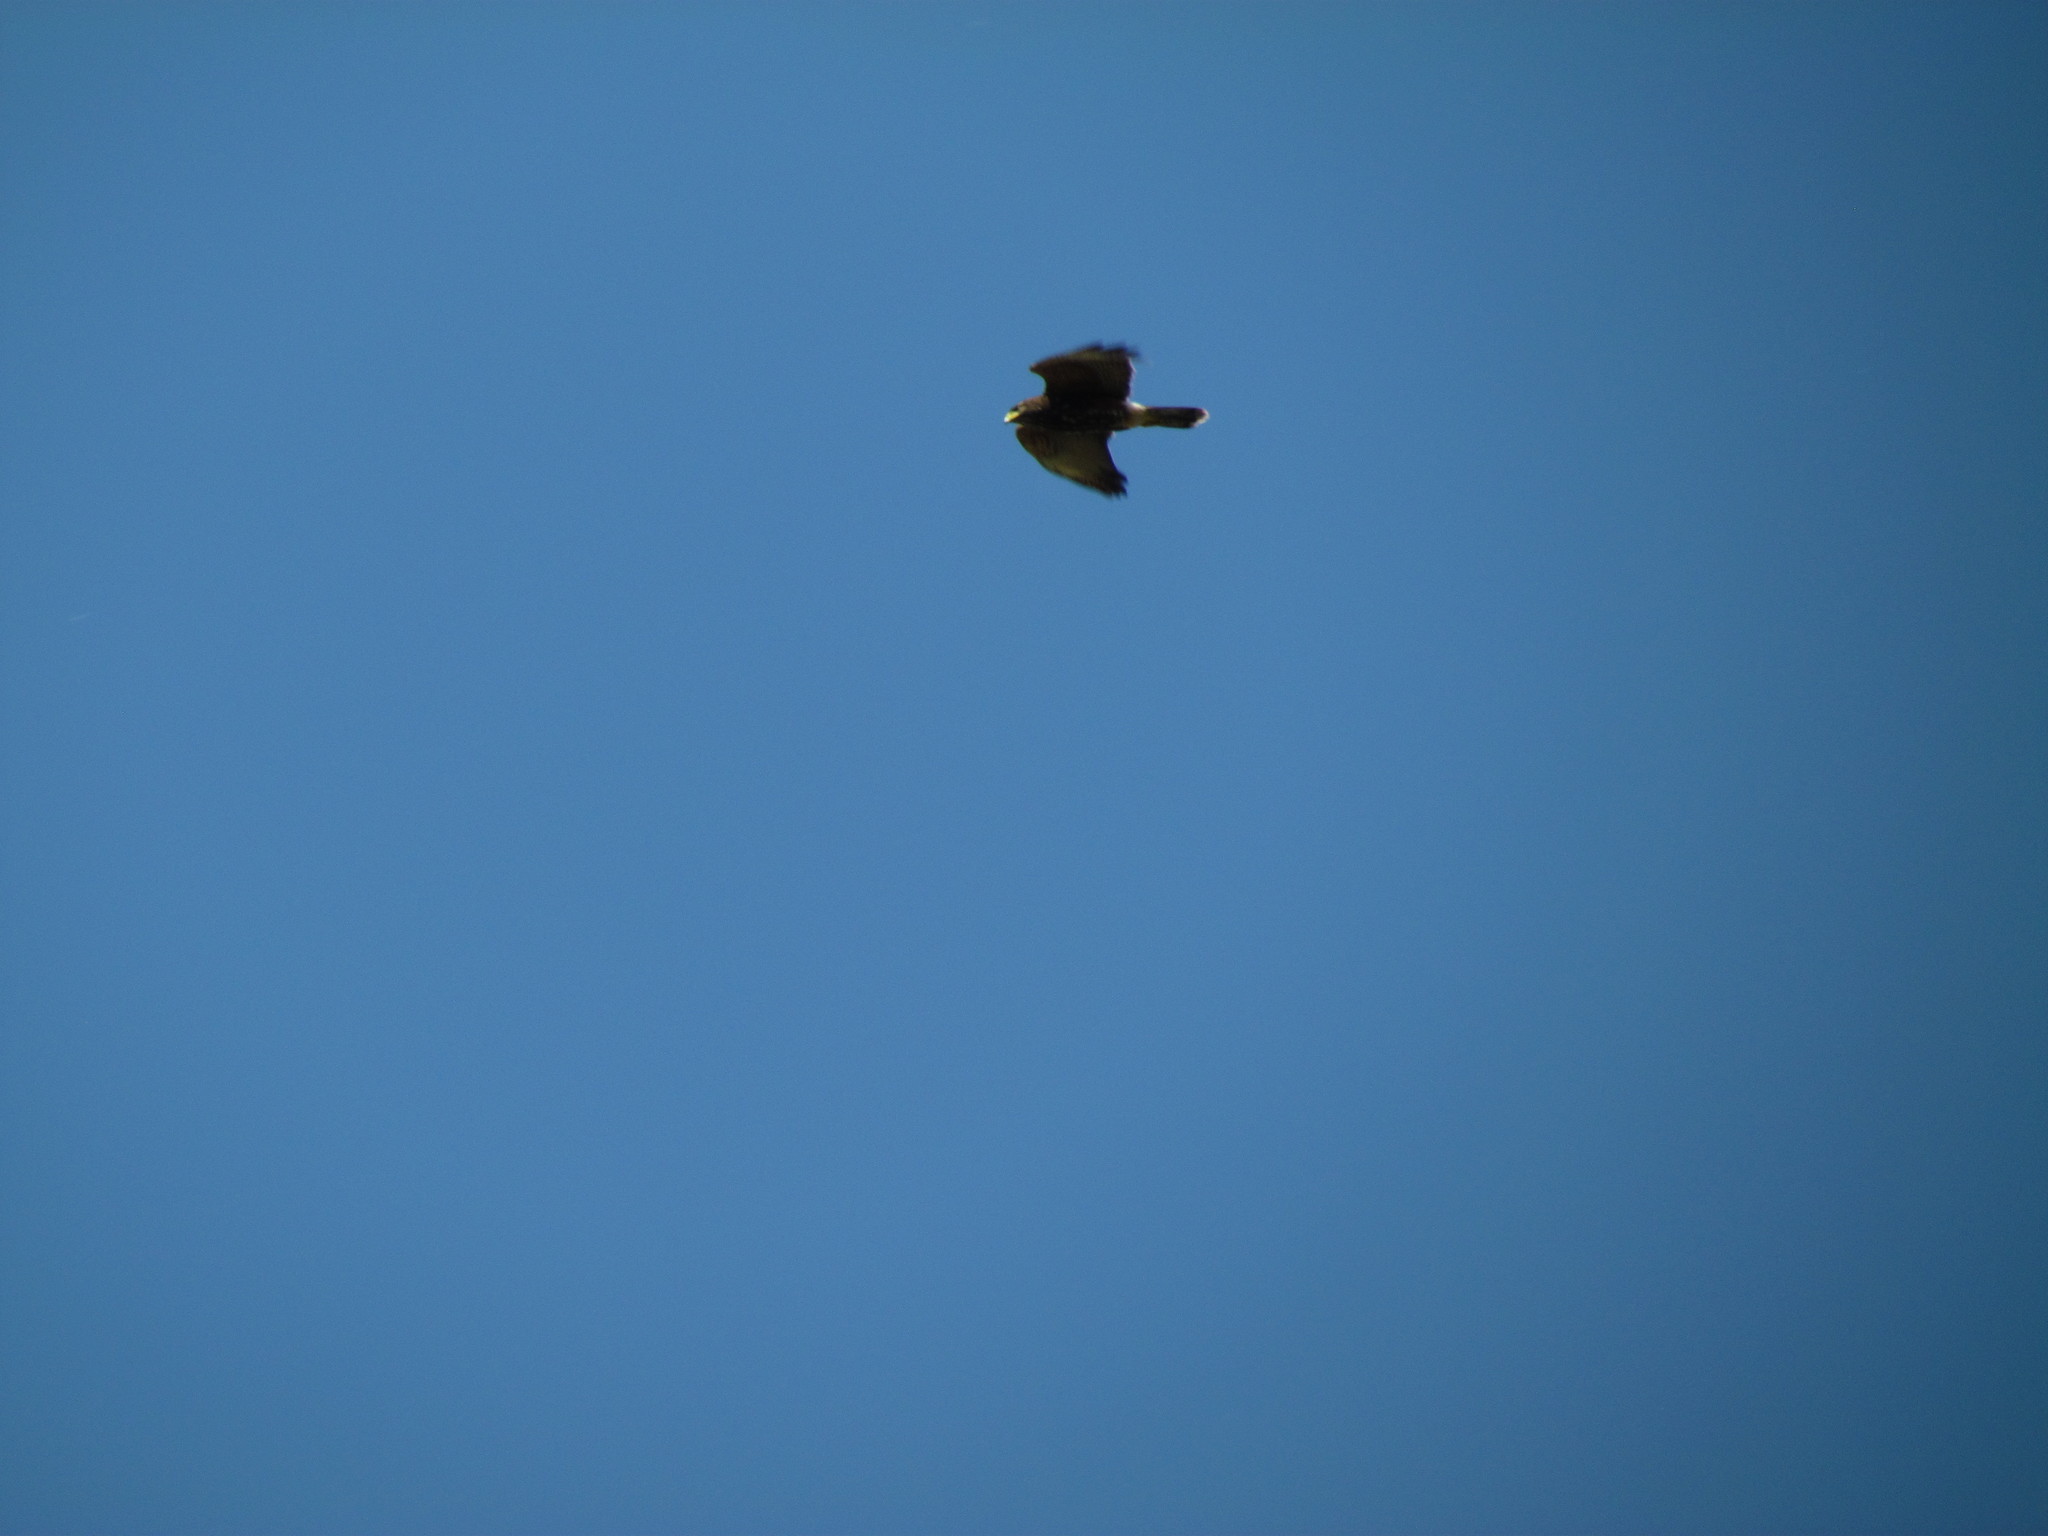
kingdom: Animalia
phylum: Chordata
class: Aves
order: Accipitriformes
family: Accipitridae
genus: Parabuteo
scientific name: Parabuteo unicinctus
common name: Harris's hawk
